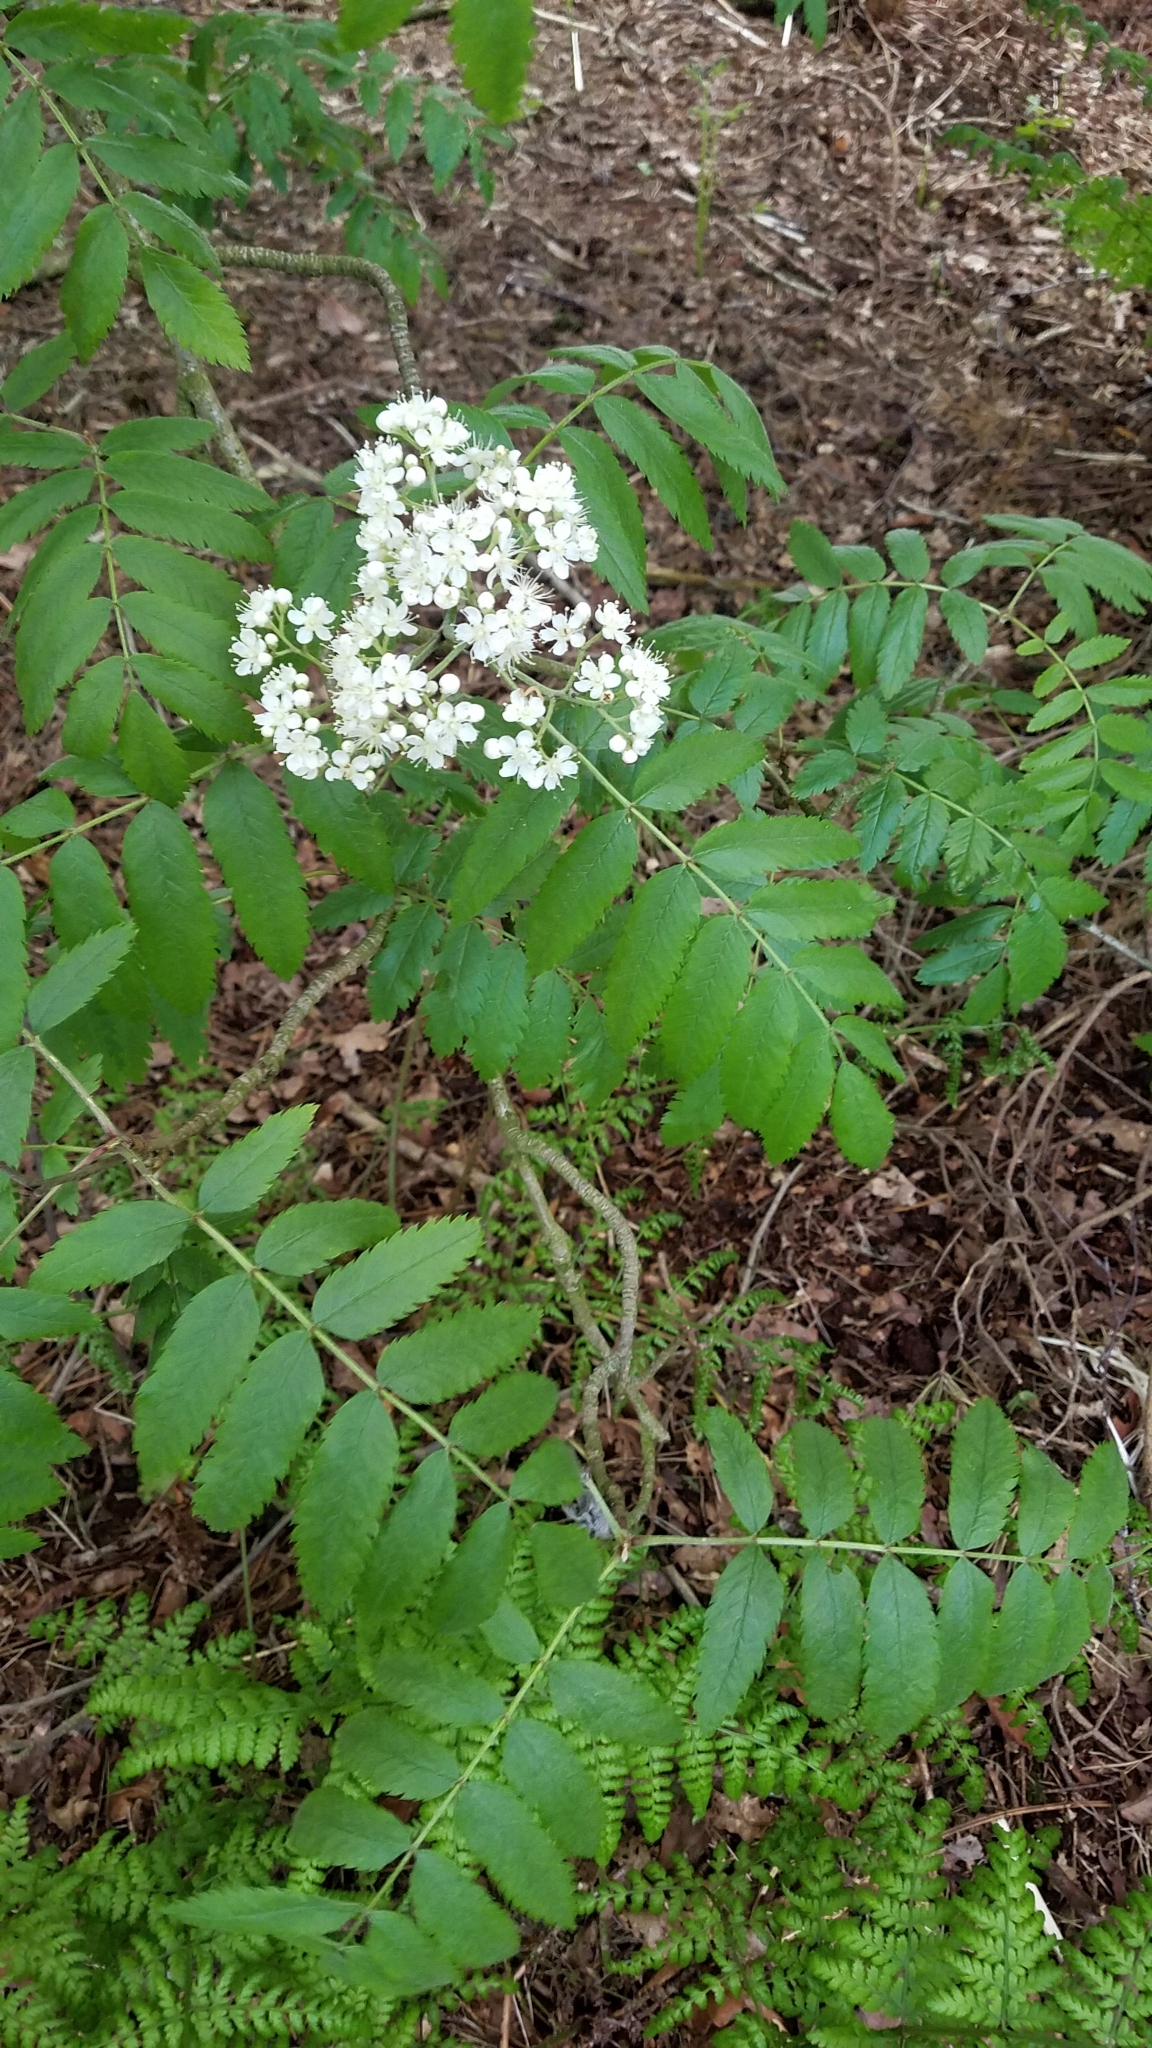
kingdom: Plantae
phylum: Tracheophyta
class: Magnoliopsida
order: Rosales
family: Rosaceae
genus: Sorbus
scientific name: Sorbus aucuparia
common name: Rowan
